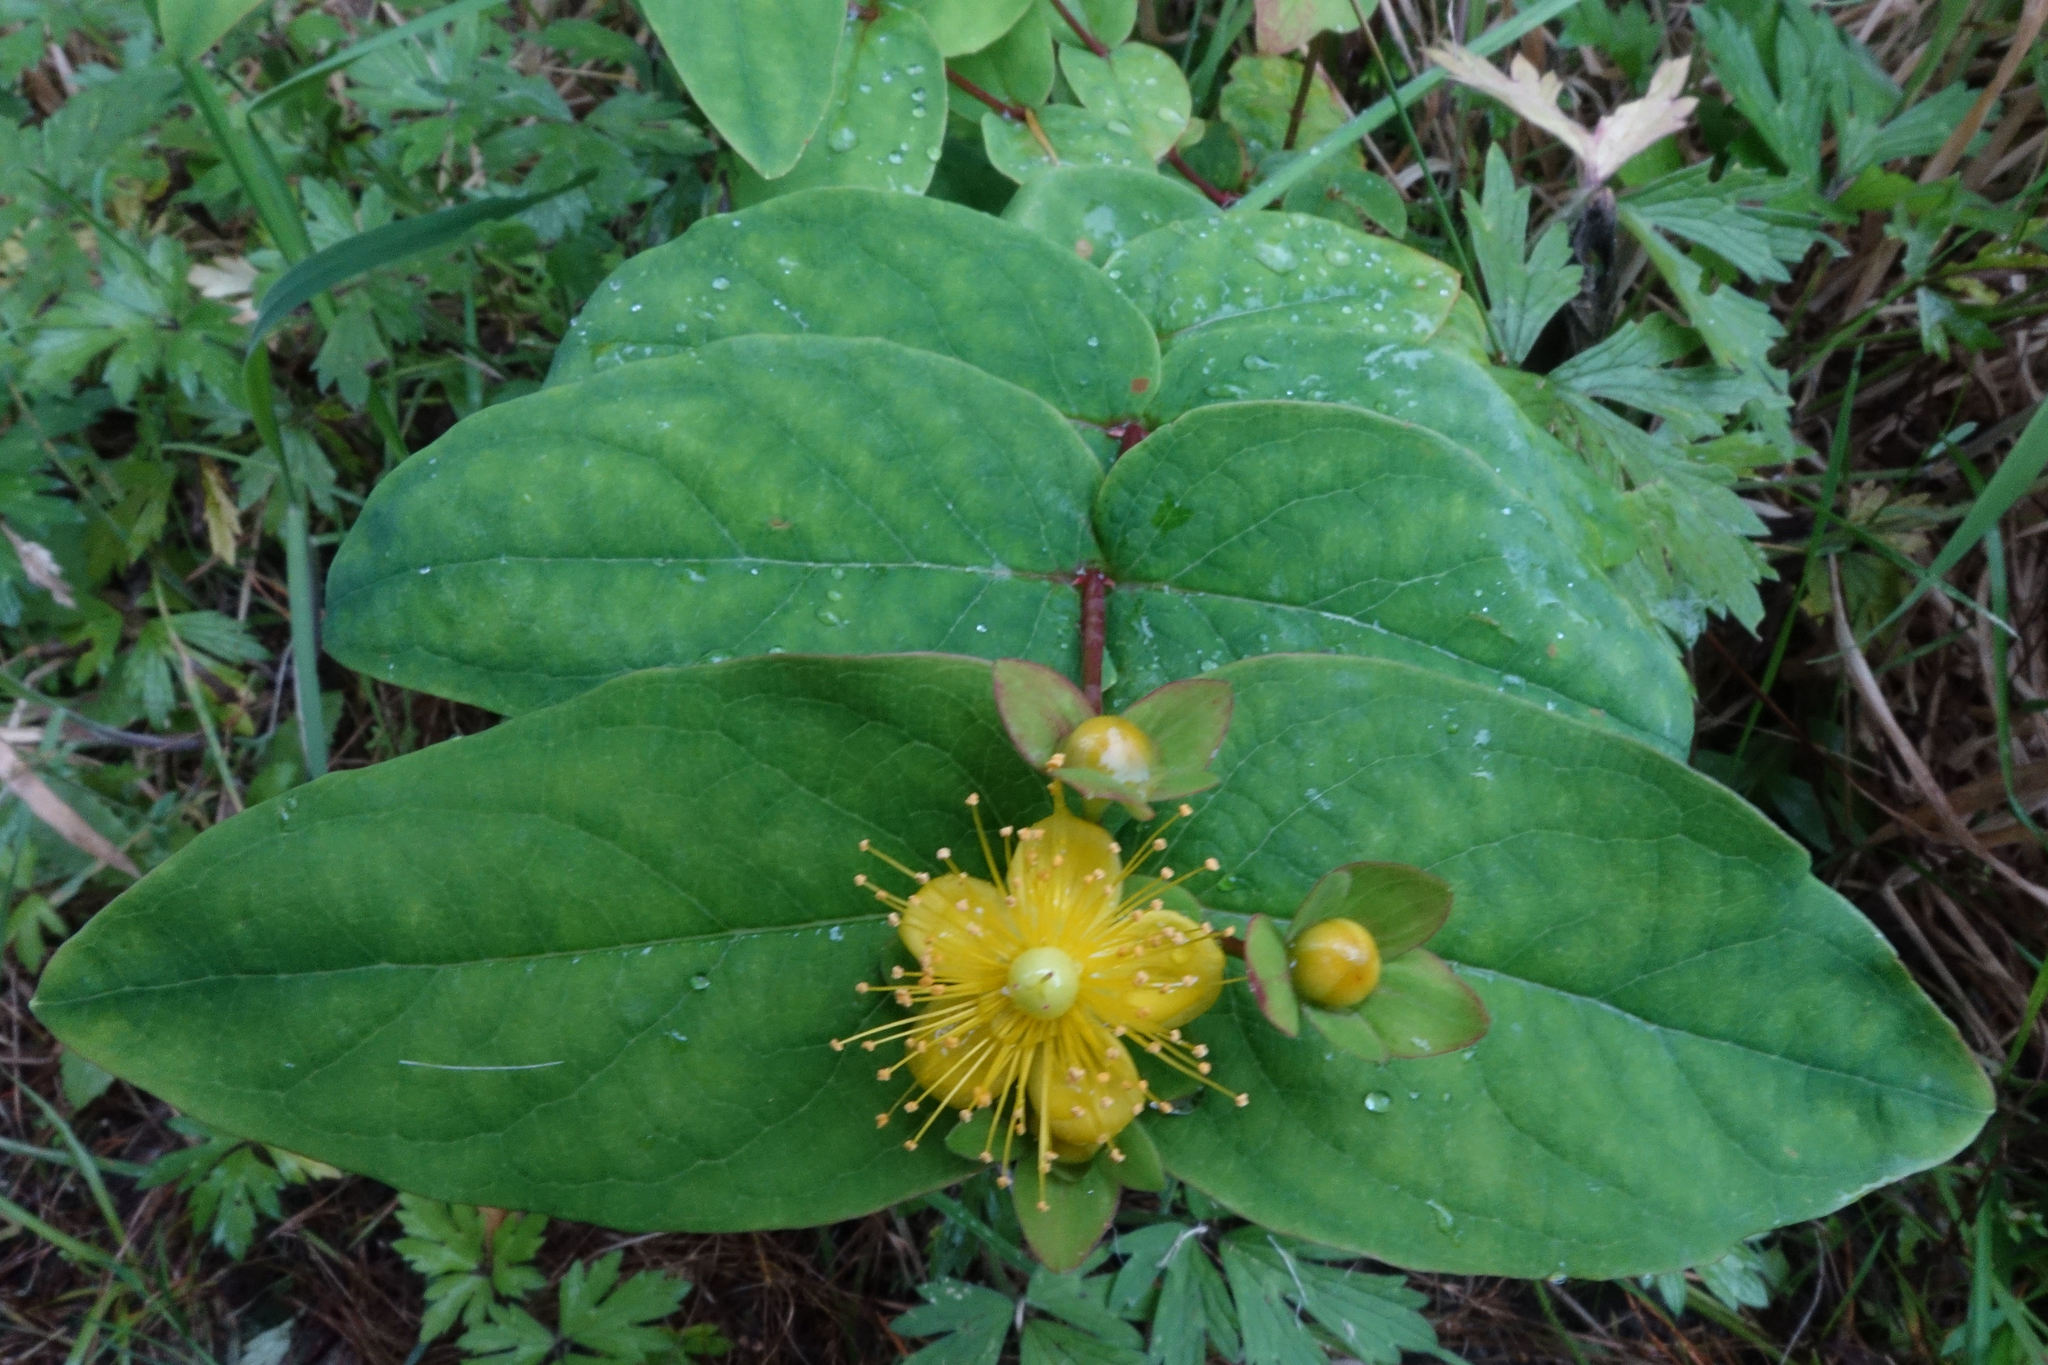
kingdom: Plantae
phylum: Tracheophyta
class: Magnoliopsida
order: Malpighiales
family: Hypericaceae
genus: Hypericum
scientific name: Hypericum androsaemum
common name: Sweet-amber
